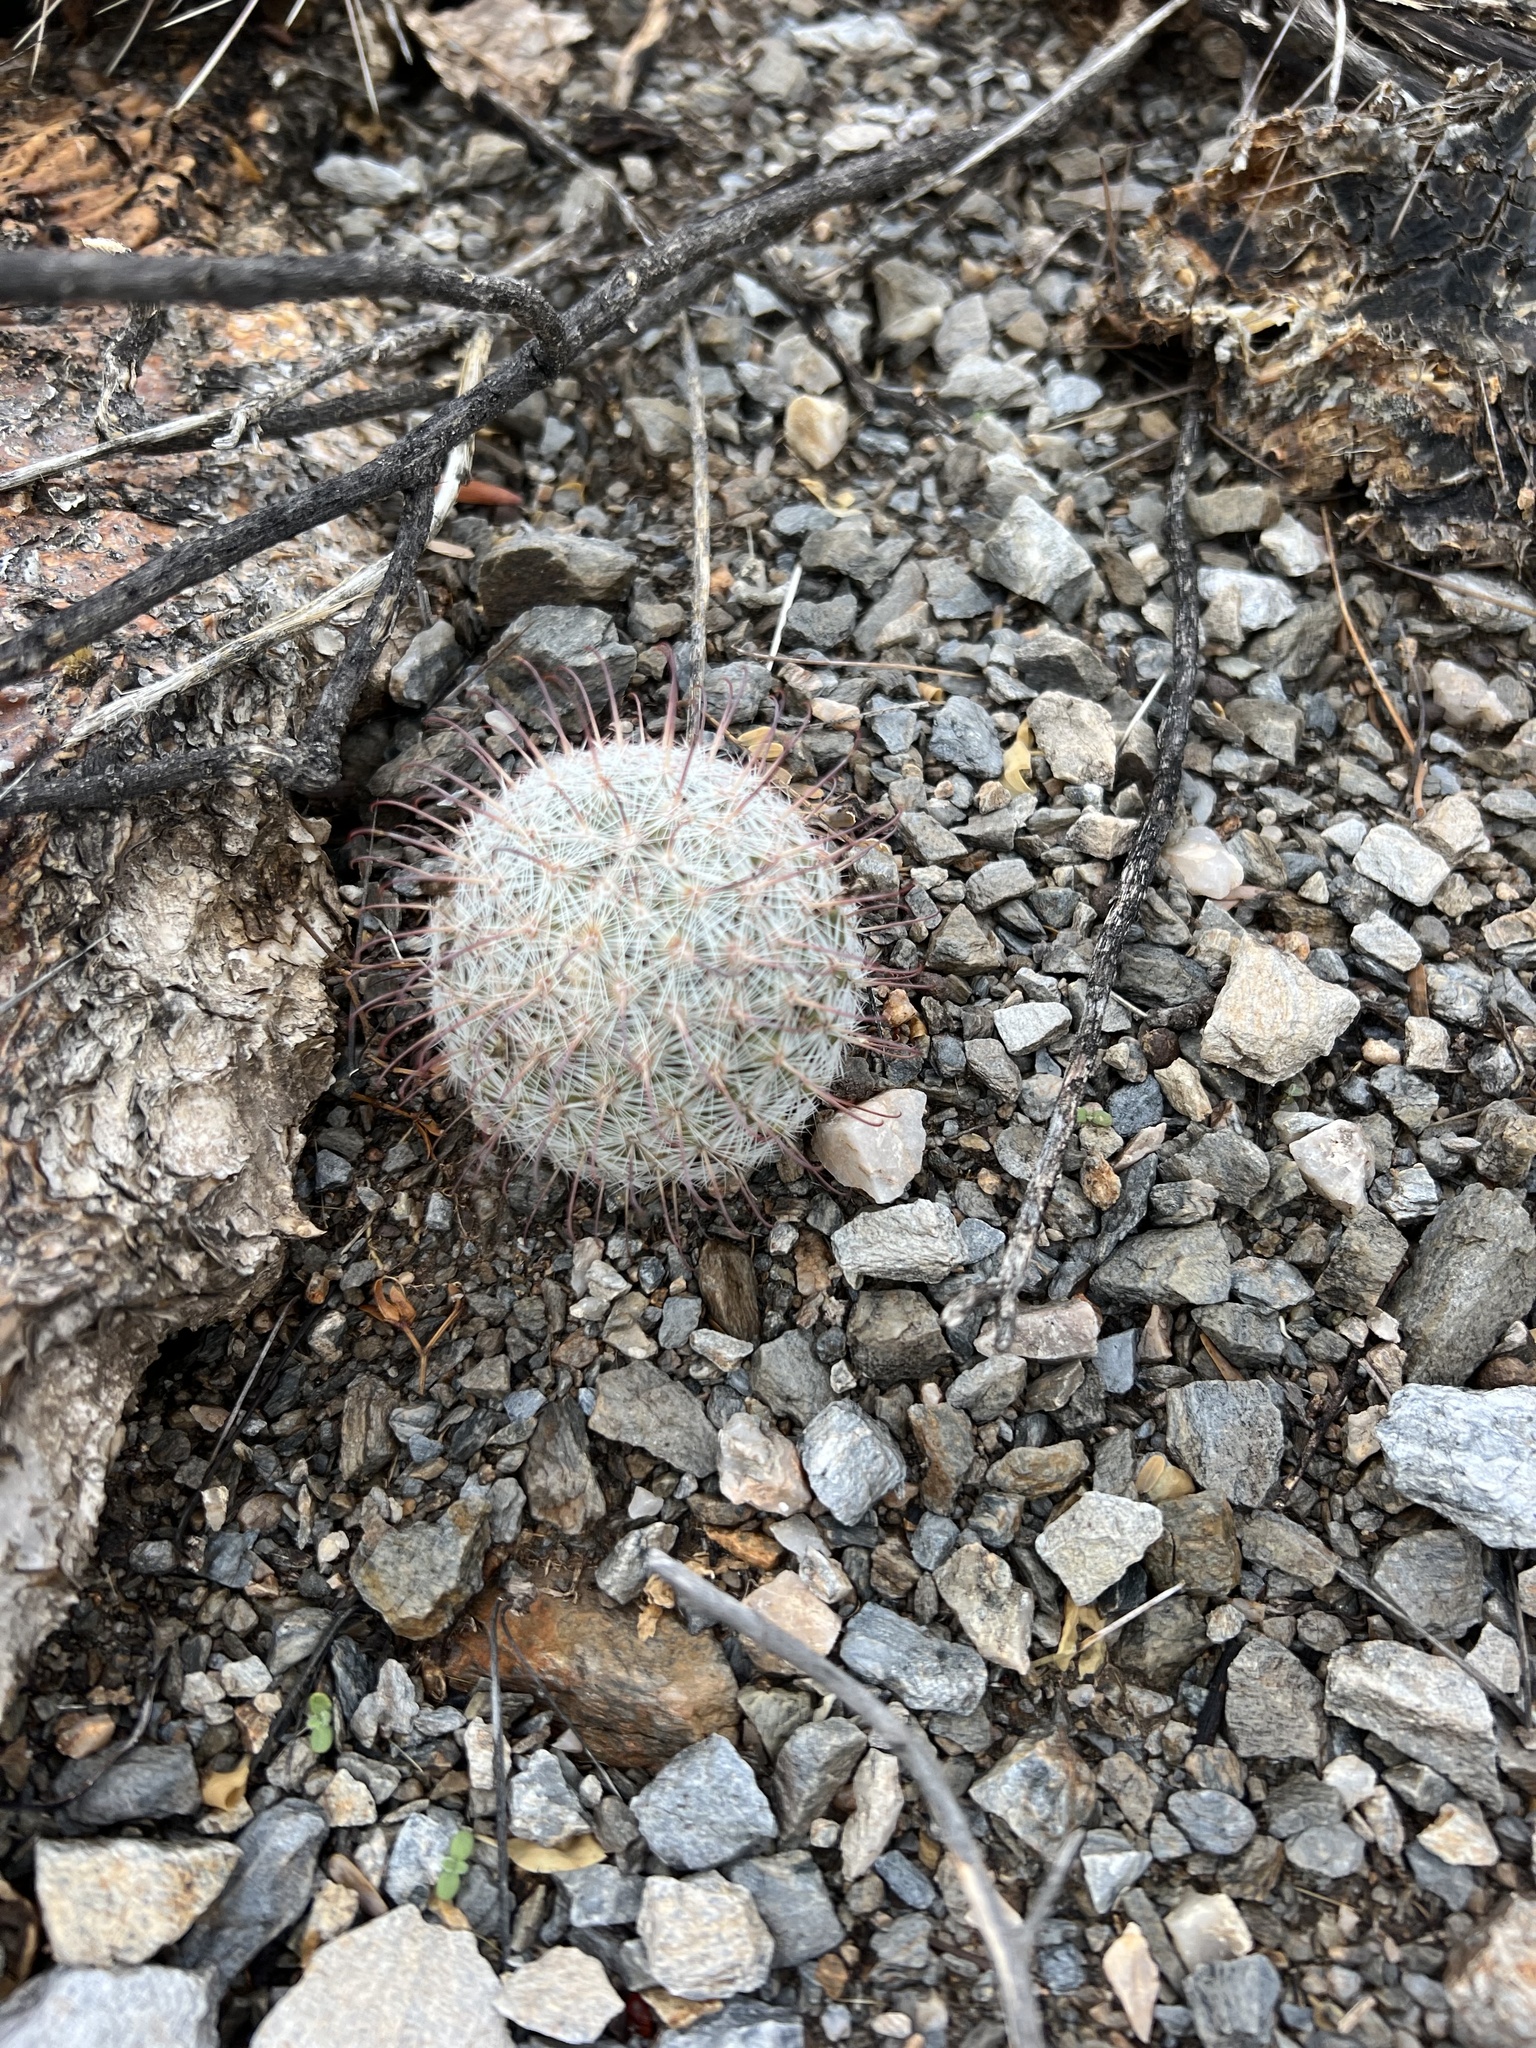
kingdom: Plantae
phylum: Tracheophyta
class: Magnoliopsida
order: Caryophyllales
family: Cactaceae
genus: Cochemiea
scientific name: Cochemiea grahamii
